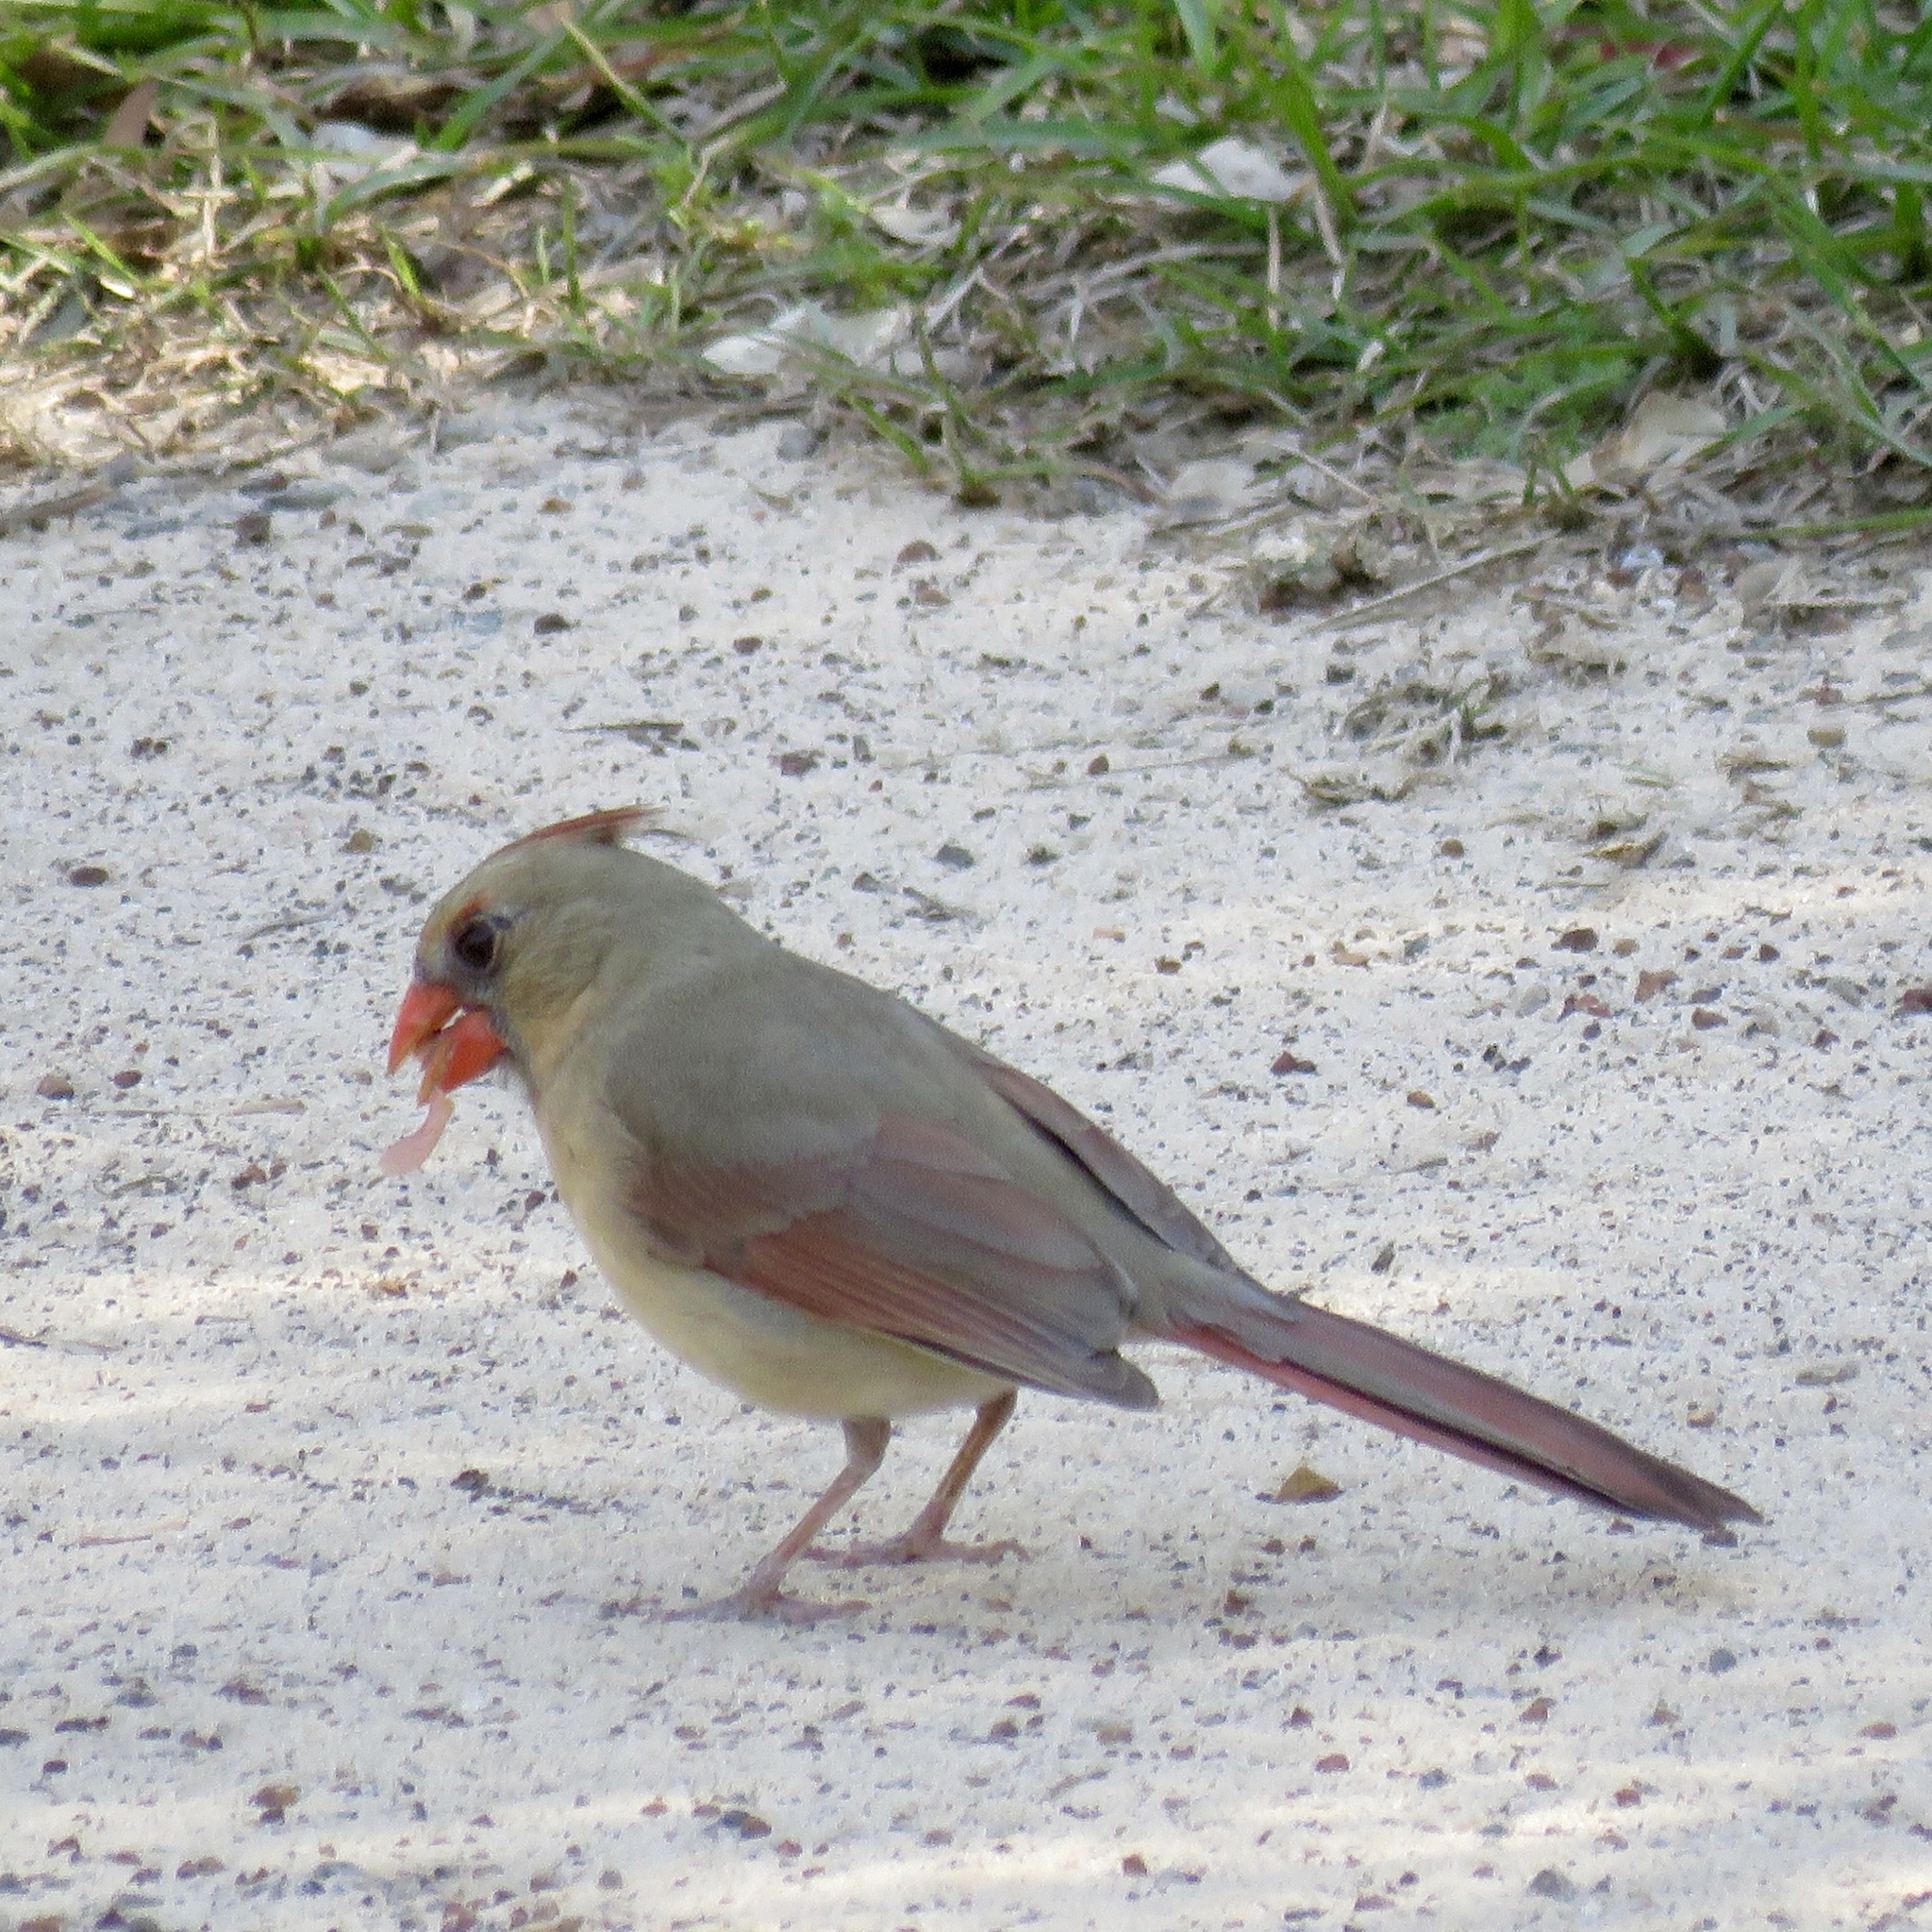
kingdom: Animalia
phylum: Chordata
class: Aves
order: Passeriformes
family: Cardinalidae
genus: Cardinalis
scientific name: Cardinalis cardinalis
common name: Northern cardinal
